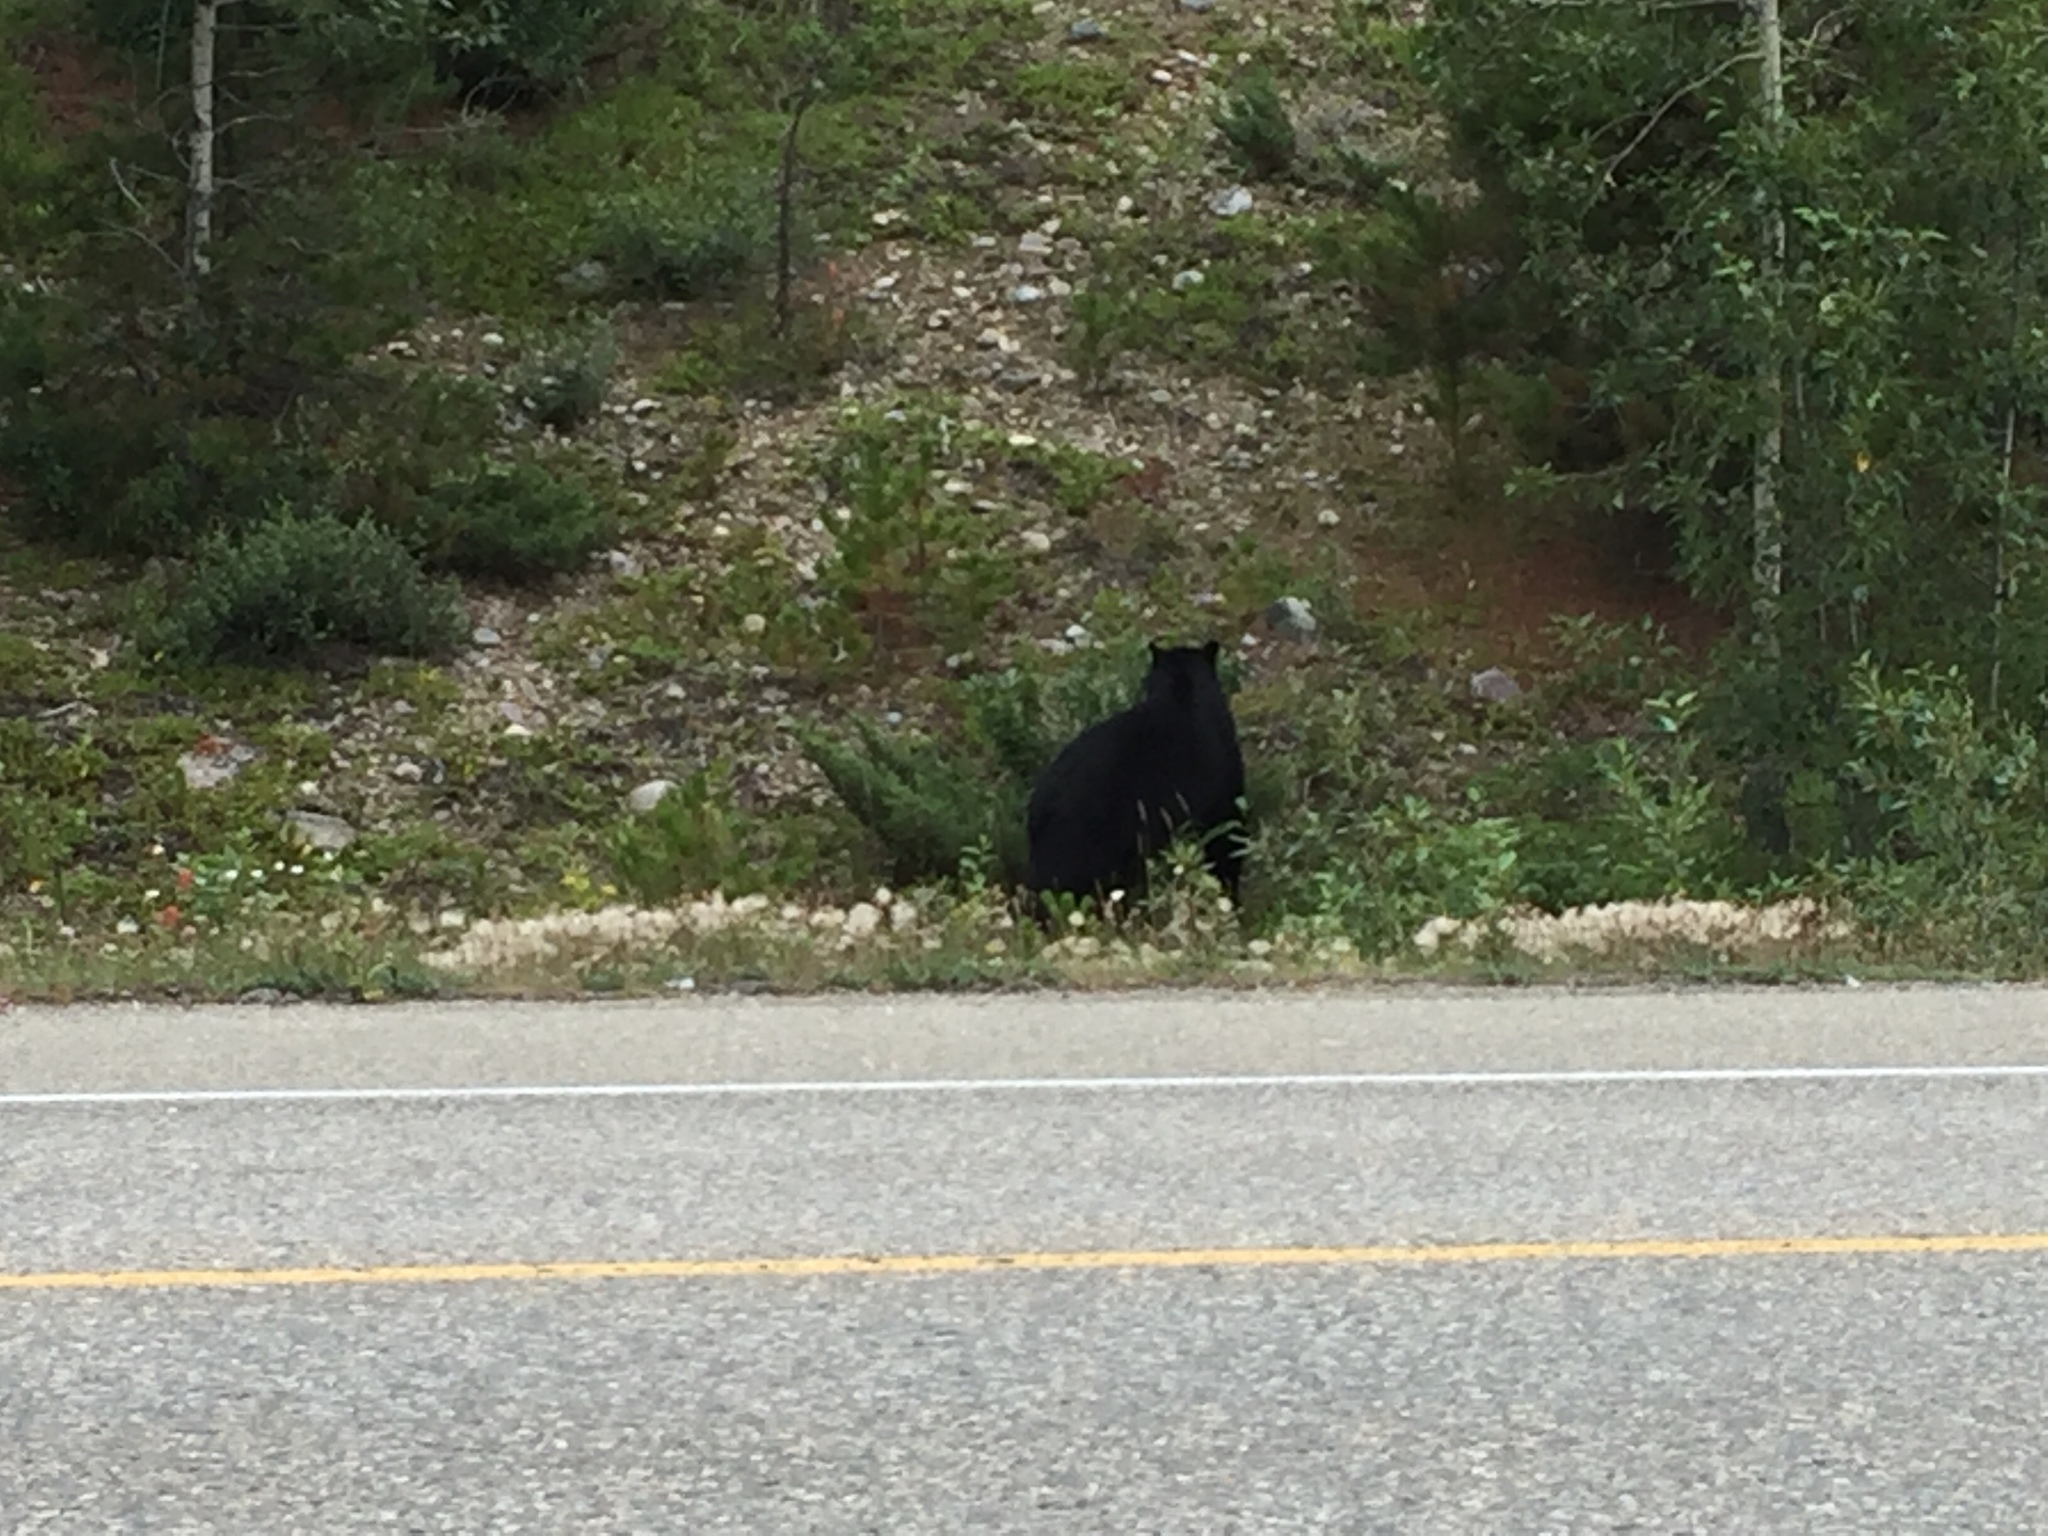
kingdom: Animalia
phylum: Chordata
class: Mammalia
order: Carnivora
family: Ursidae
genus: Ursus
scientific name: Ursus americanus
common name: American black bear
